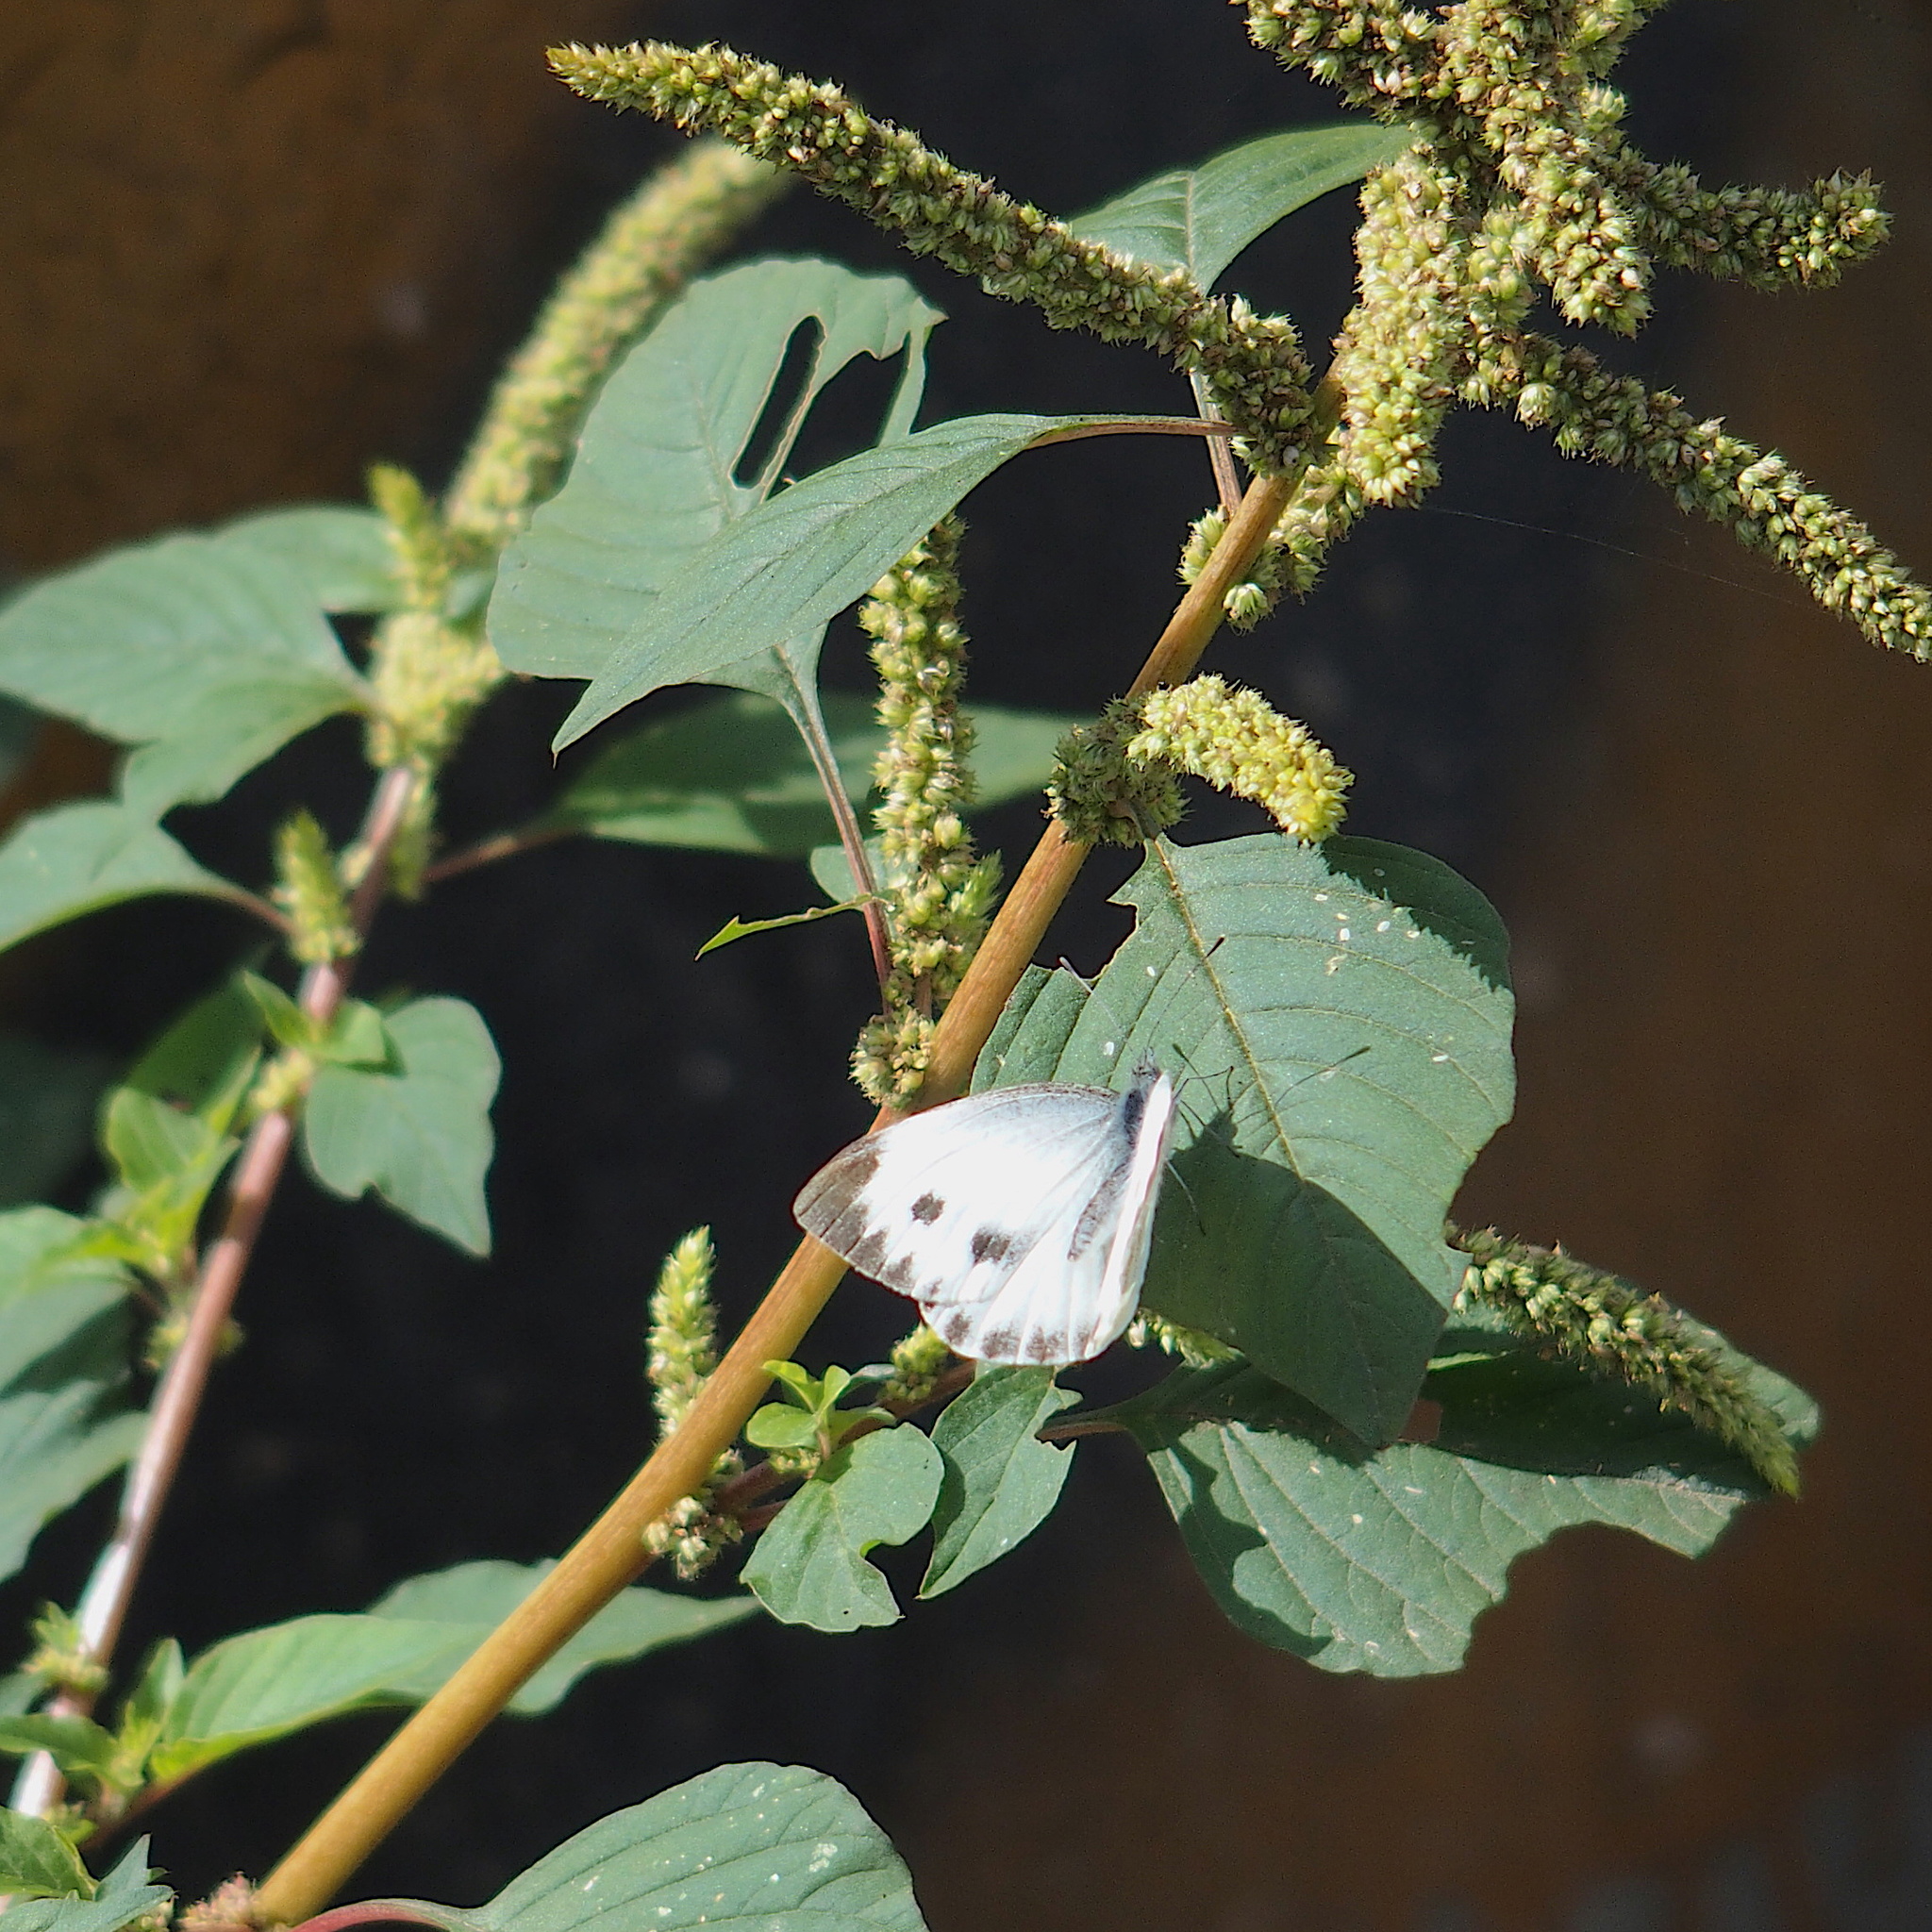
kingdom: Animalia
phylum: Arthropoda
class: Insecta
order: Lepidoptera
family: Pieridae
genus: Pieris
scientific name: Pieris canidia
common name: Indian cabbage white
